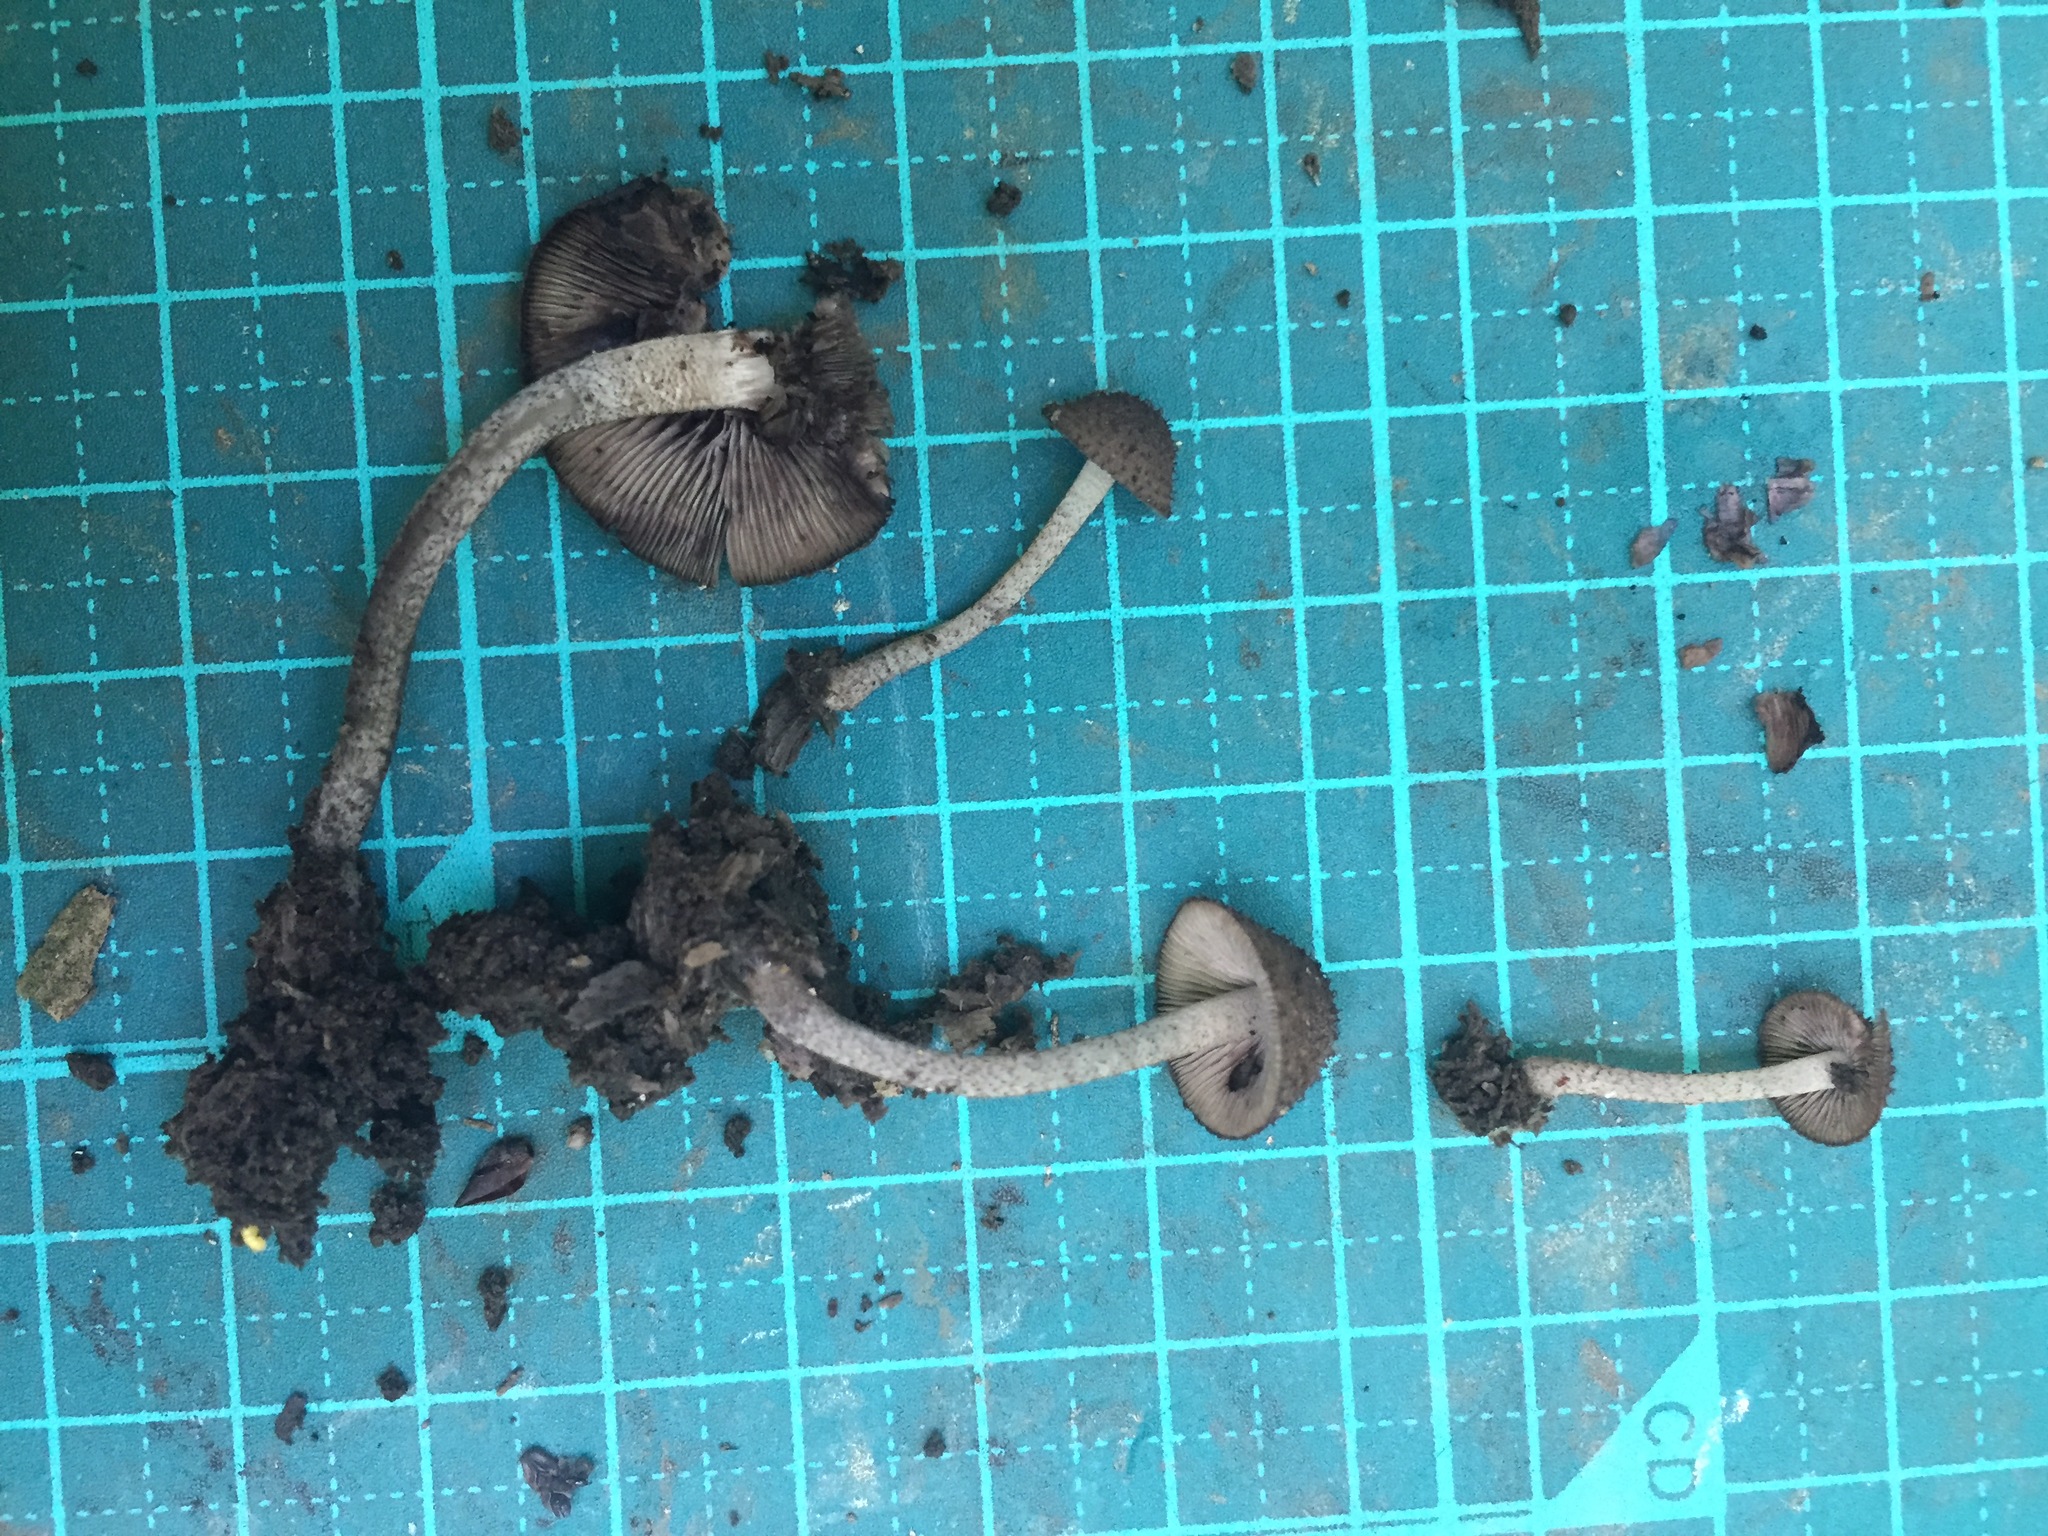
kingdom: Fungi
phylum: Basidiomycota
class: Agaricomycetes
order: Agaricales
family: Psathyrellaceae
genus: Cystoagaricus
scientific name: Cystoagaricus strobilomyces
